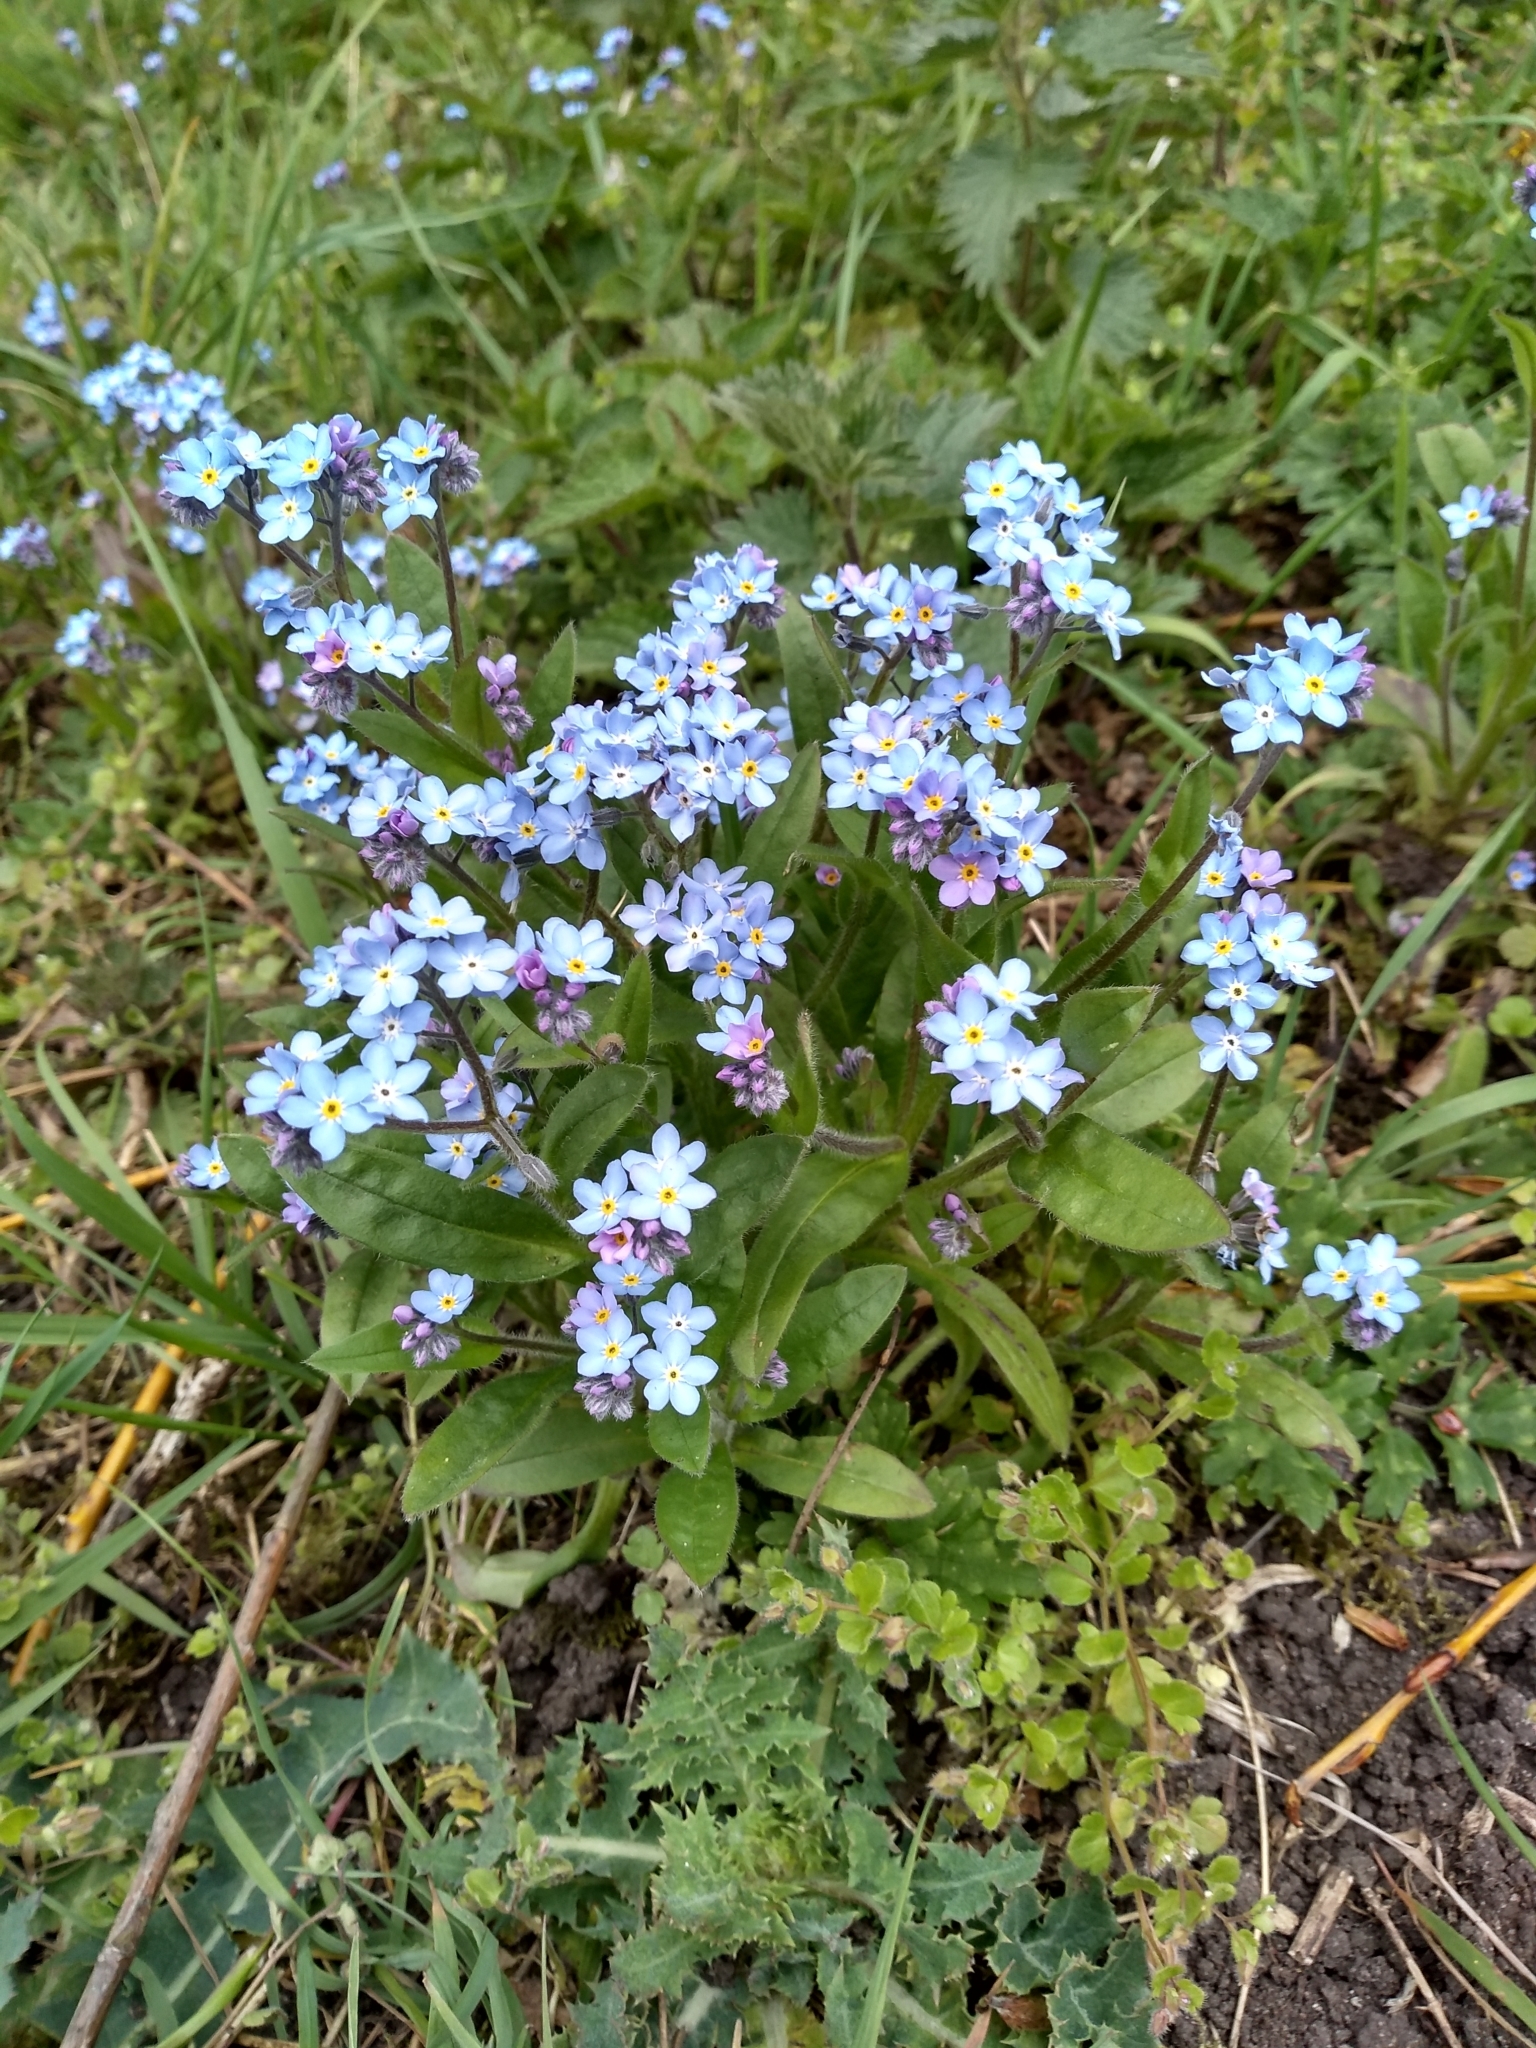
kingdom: Plantae
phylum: Tracheophyta
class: Magnoliopsida
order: Boraginales
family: Boraginaceae
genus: Myosotis
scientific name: Myosotis arvensis
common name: Field forget-me-not
